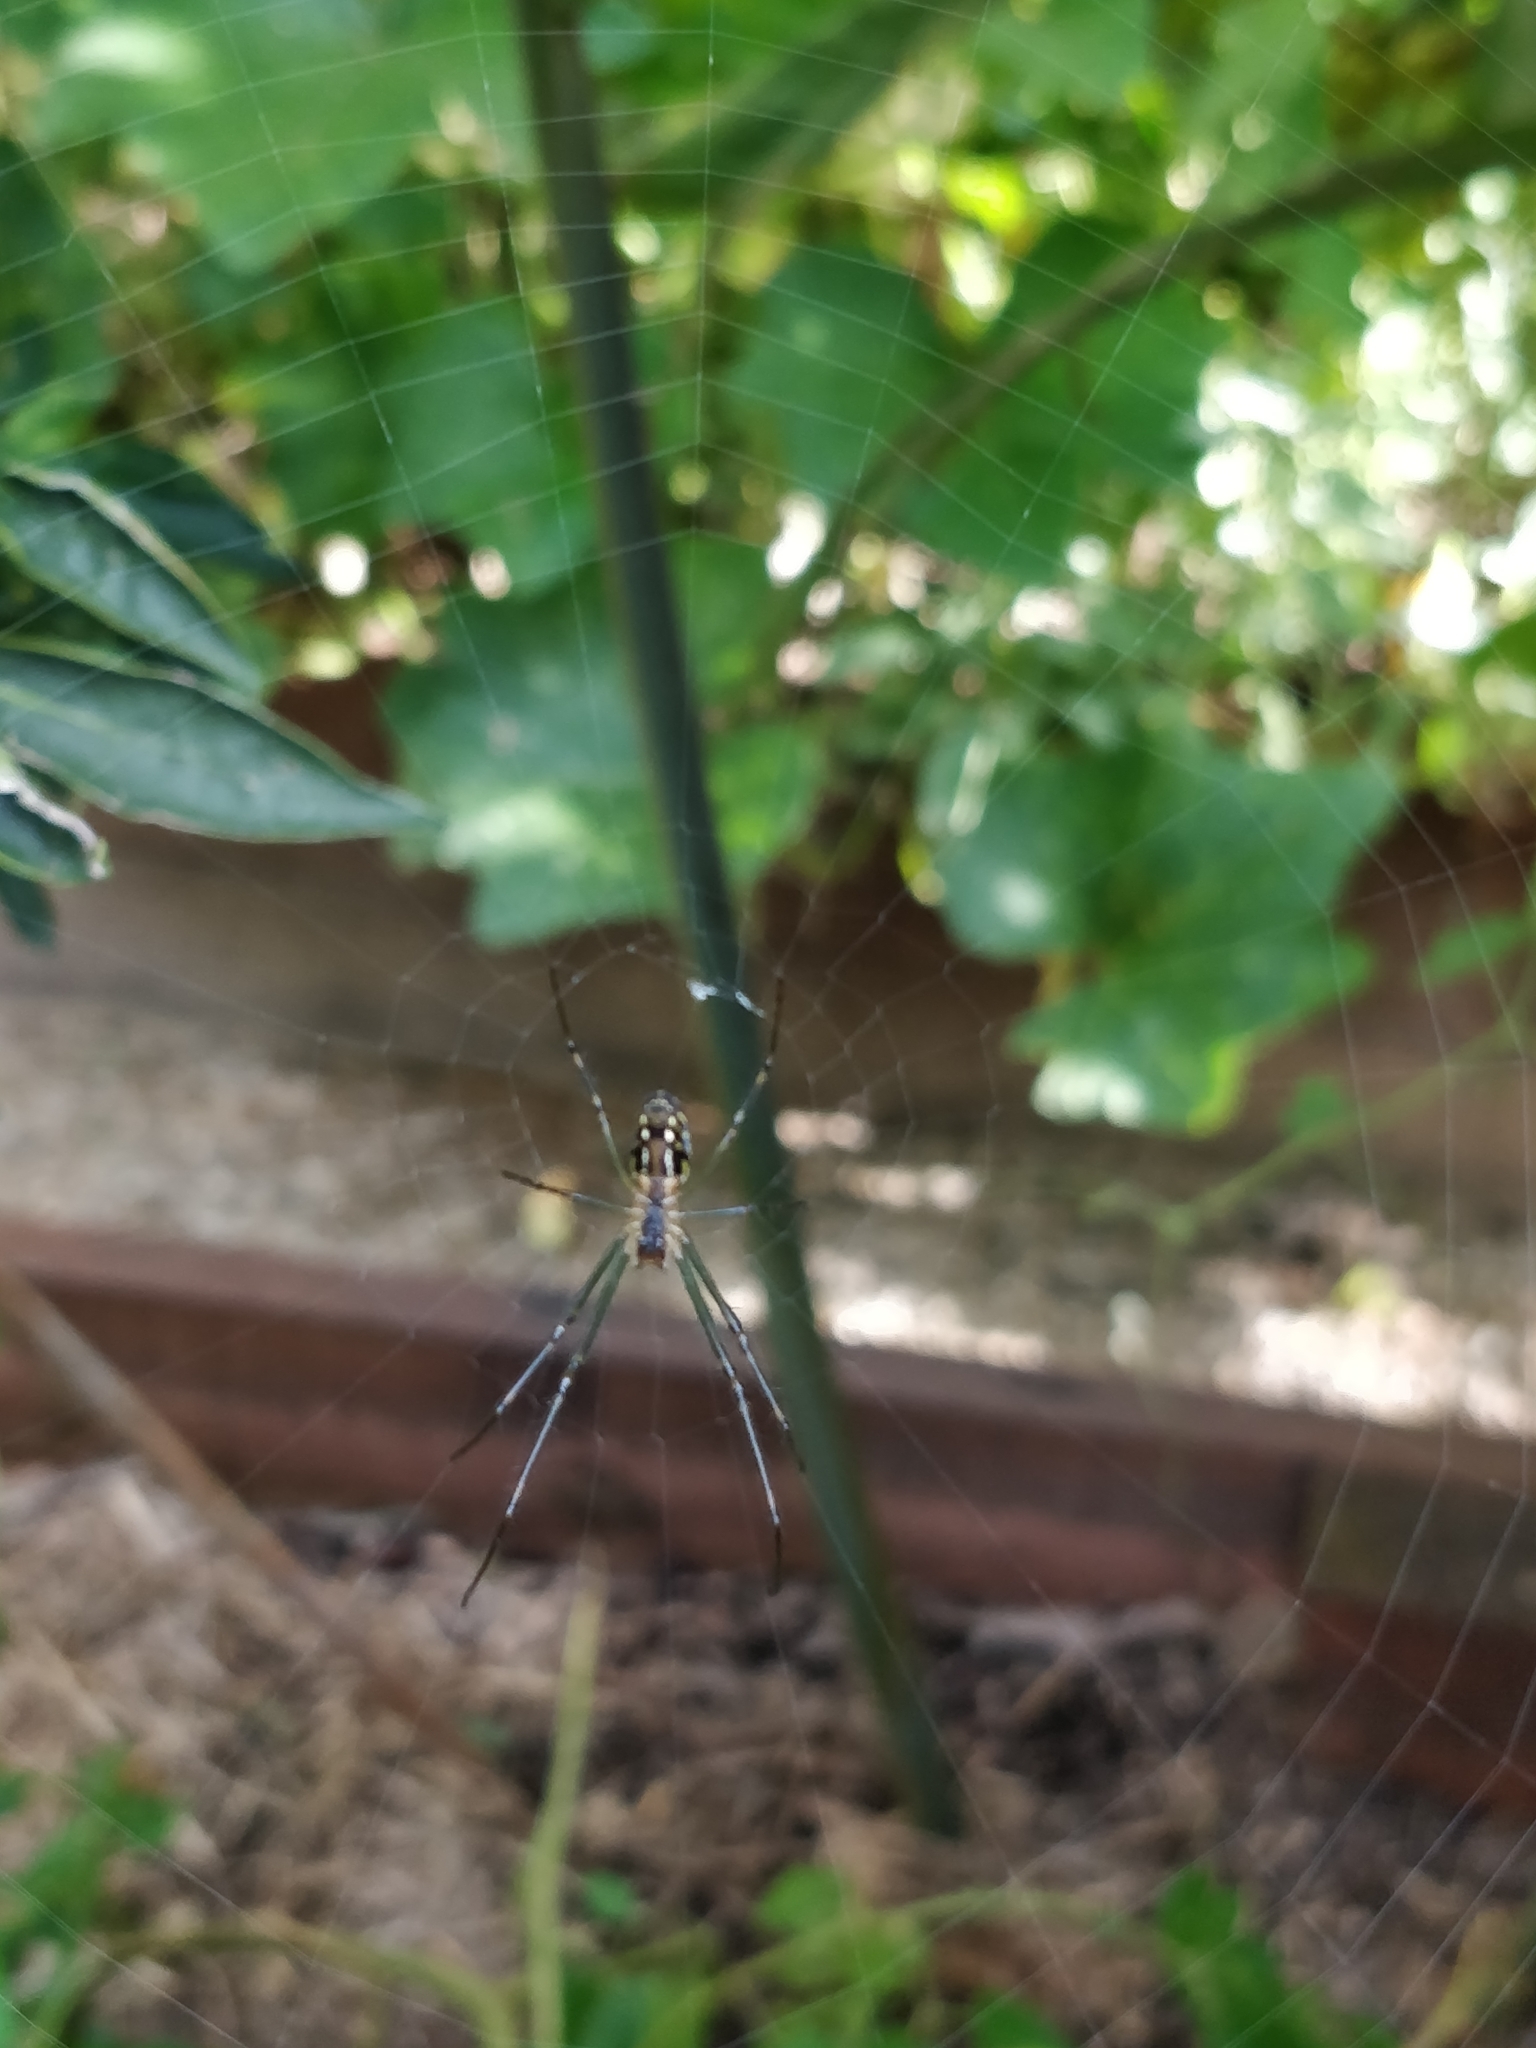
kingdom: Animalia
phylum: Arthropoda
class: Arachnida
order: Araneae
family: Tetragnathidae
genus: Leucauge
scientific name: Leucauge dromedaria
